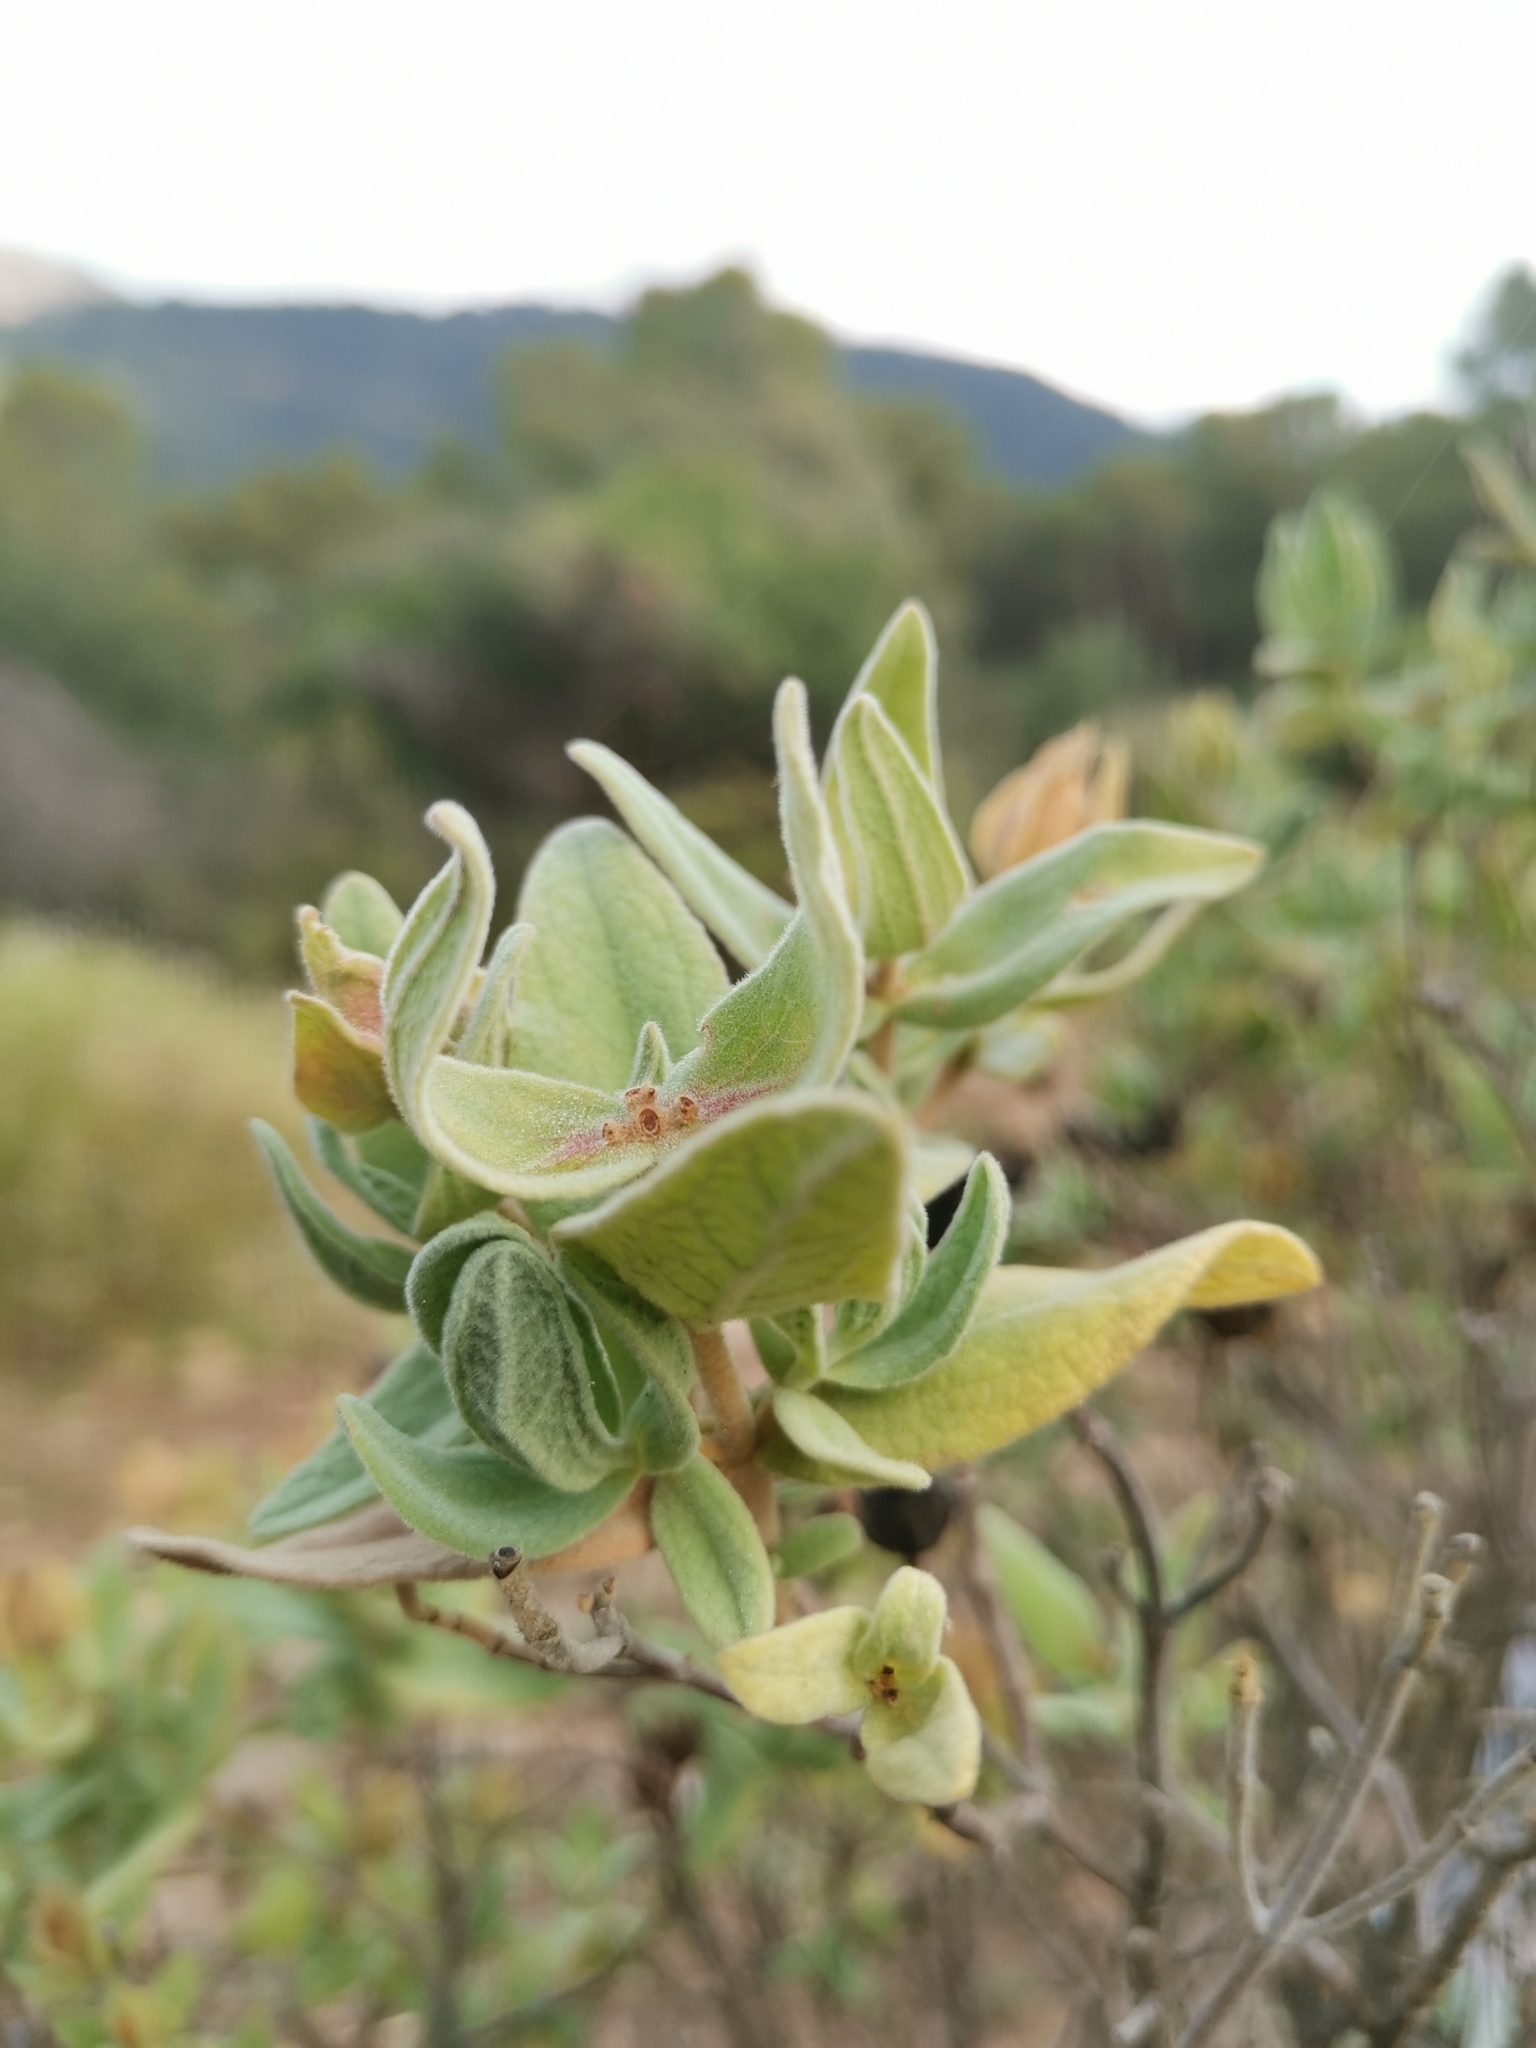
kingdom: Plantae
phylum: Tracheophyta
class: Magnoliopsida
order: Malvales
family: Cistaceae
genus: Cistus
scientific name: Cistus albidus
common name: White-leaf rock-rose
